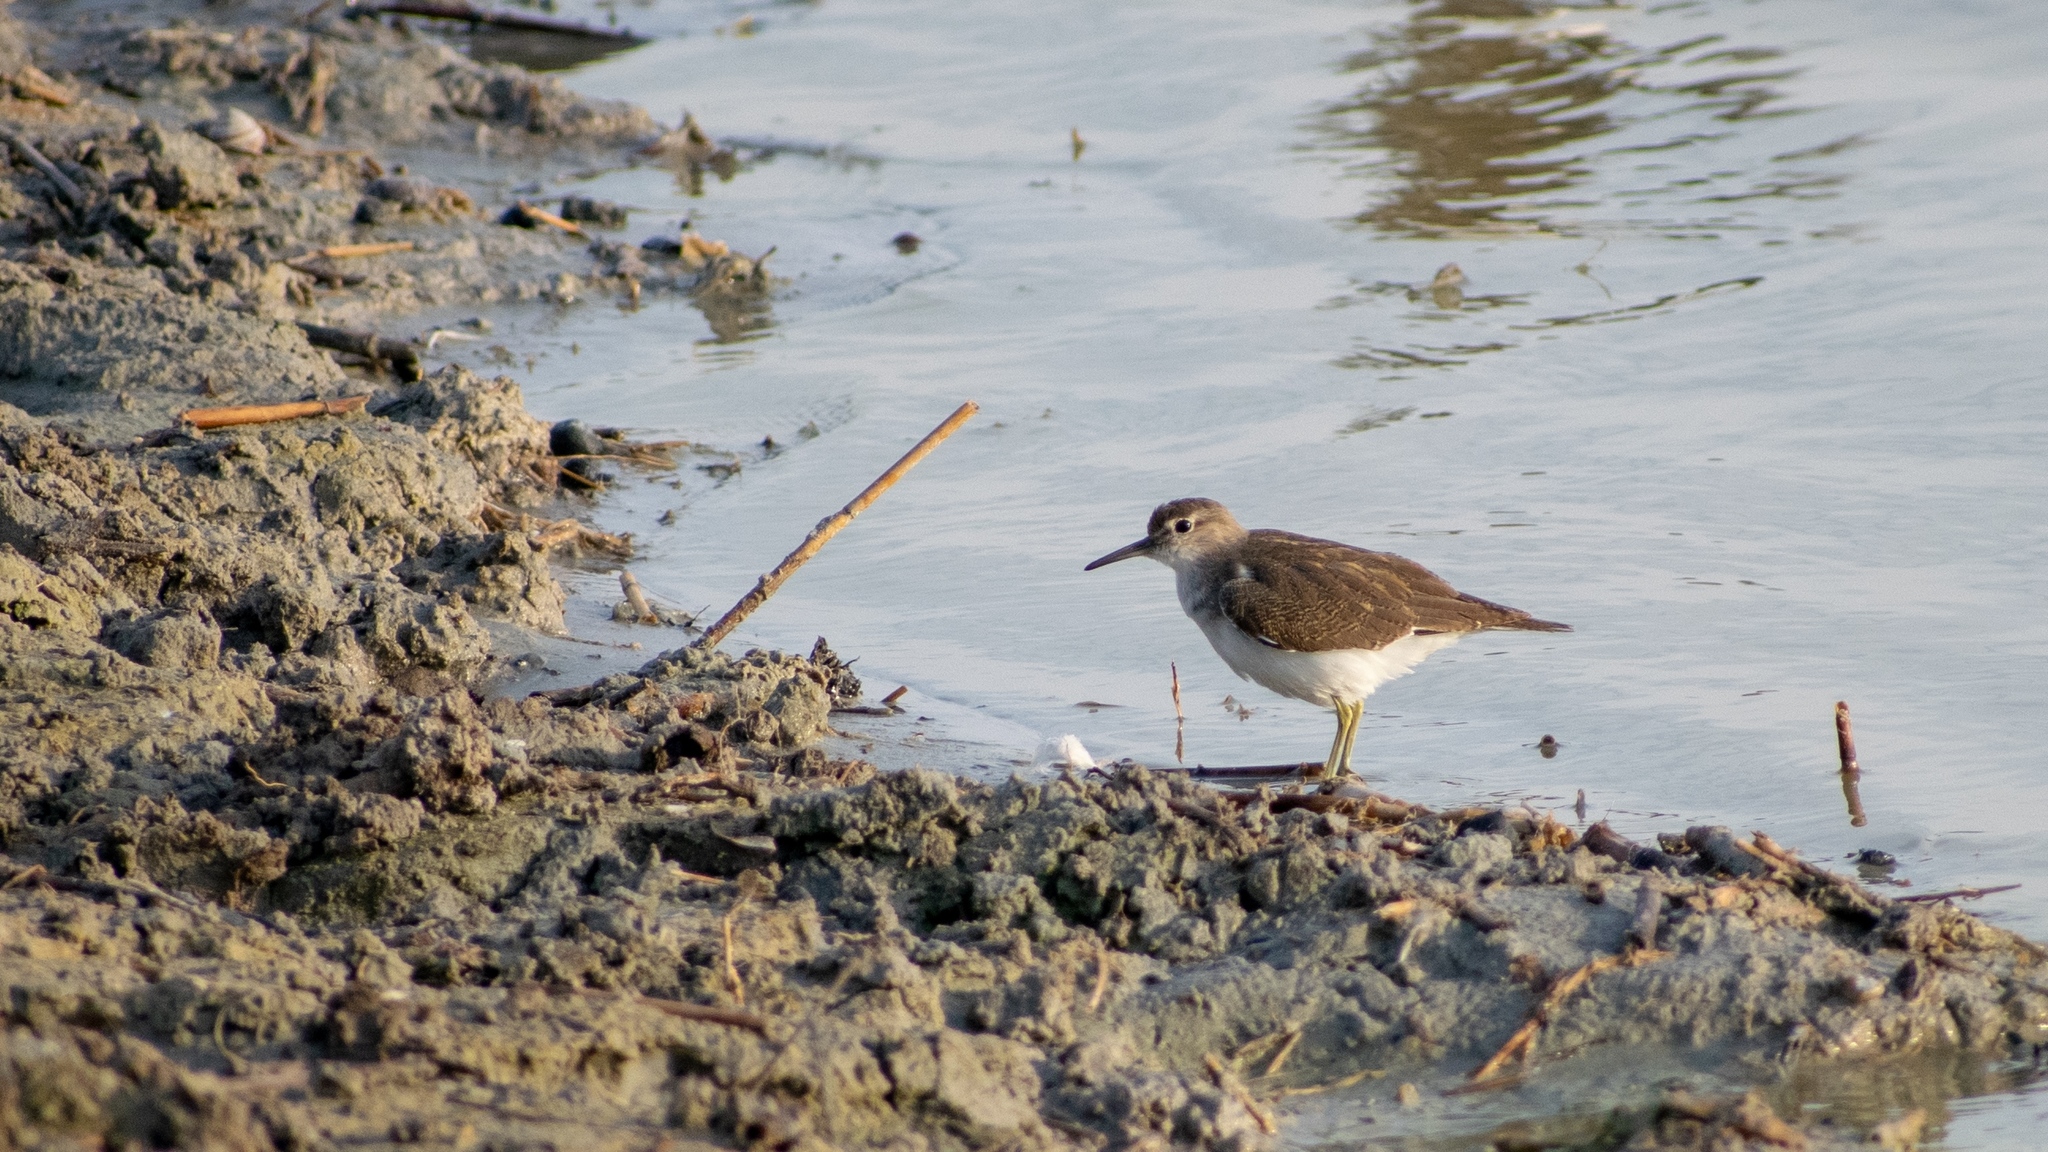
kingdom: Animalia
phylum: Chordata
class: Aves
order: Charadriiformes
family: Scolopacidae
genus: Actitis
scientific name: Actitis hypoleucos
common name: Common sandpiper
